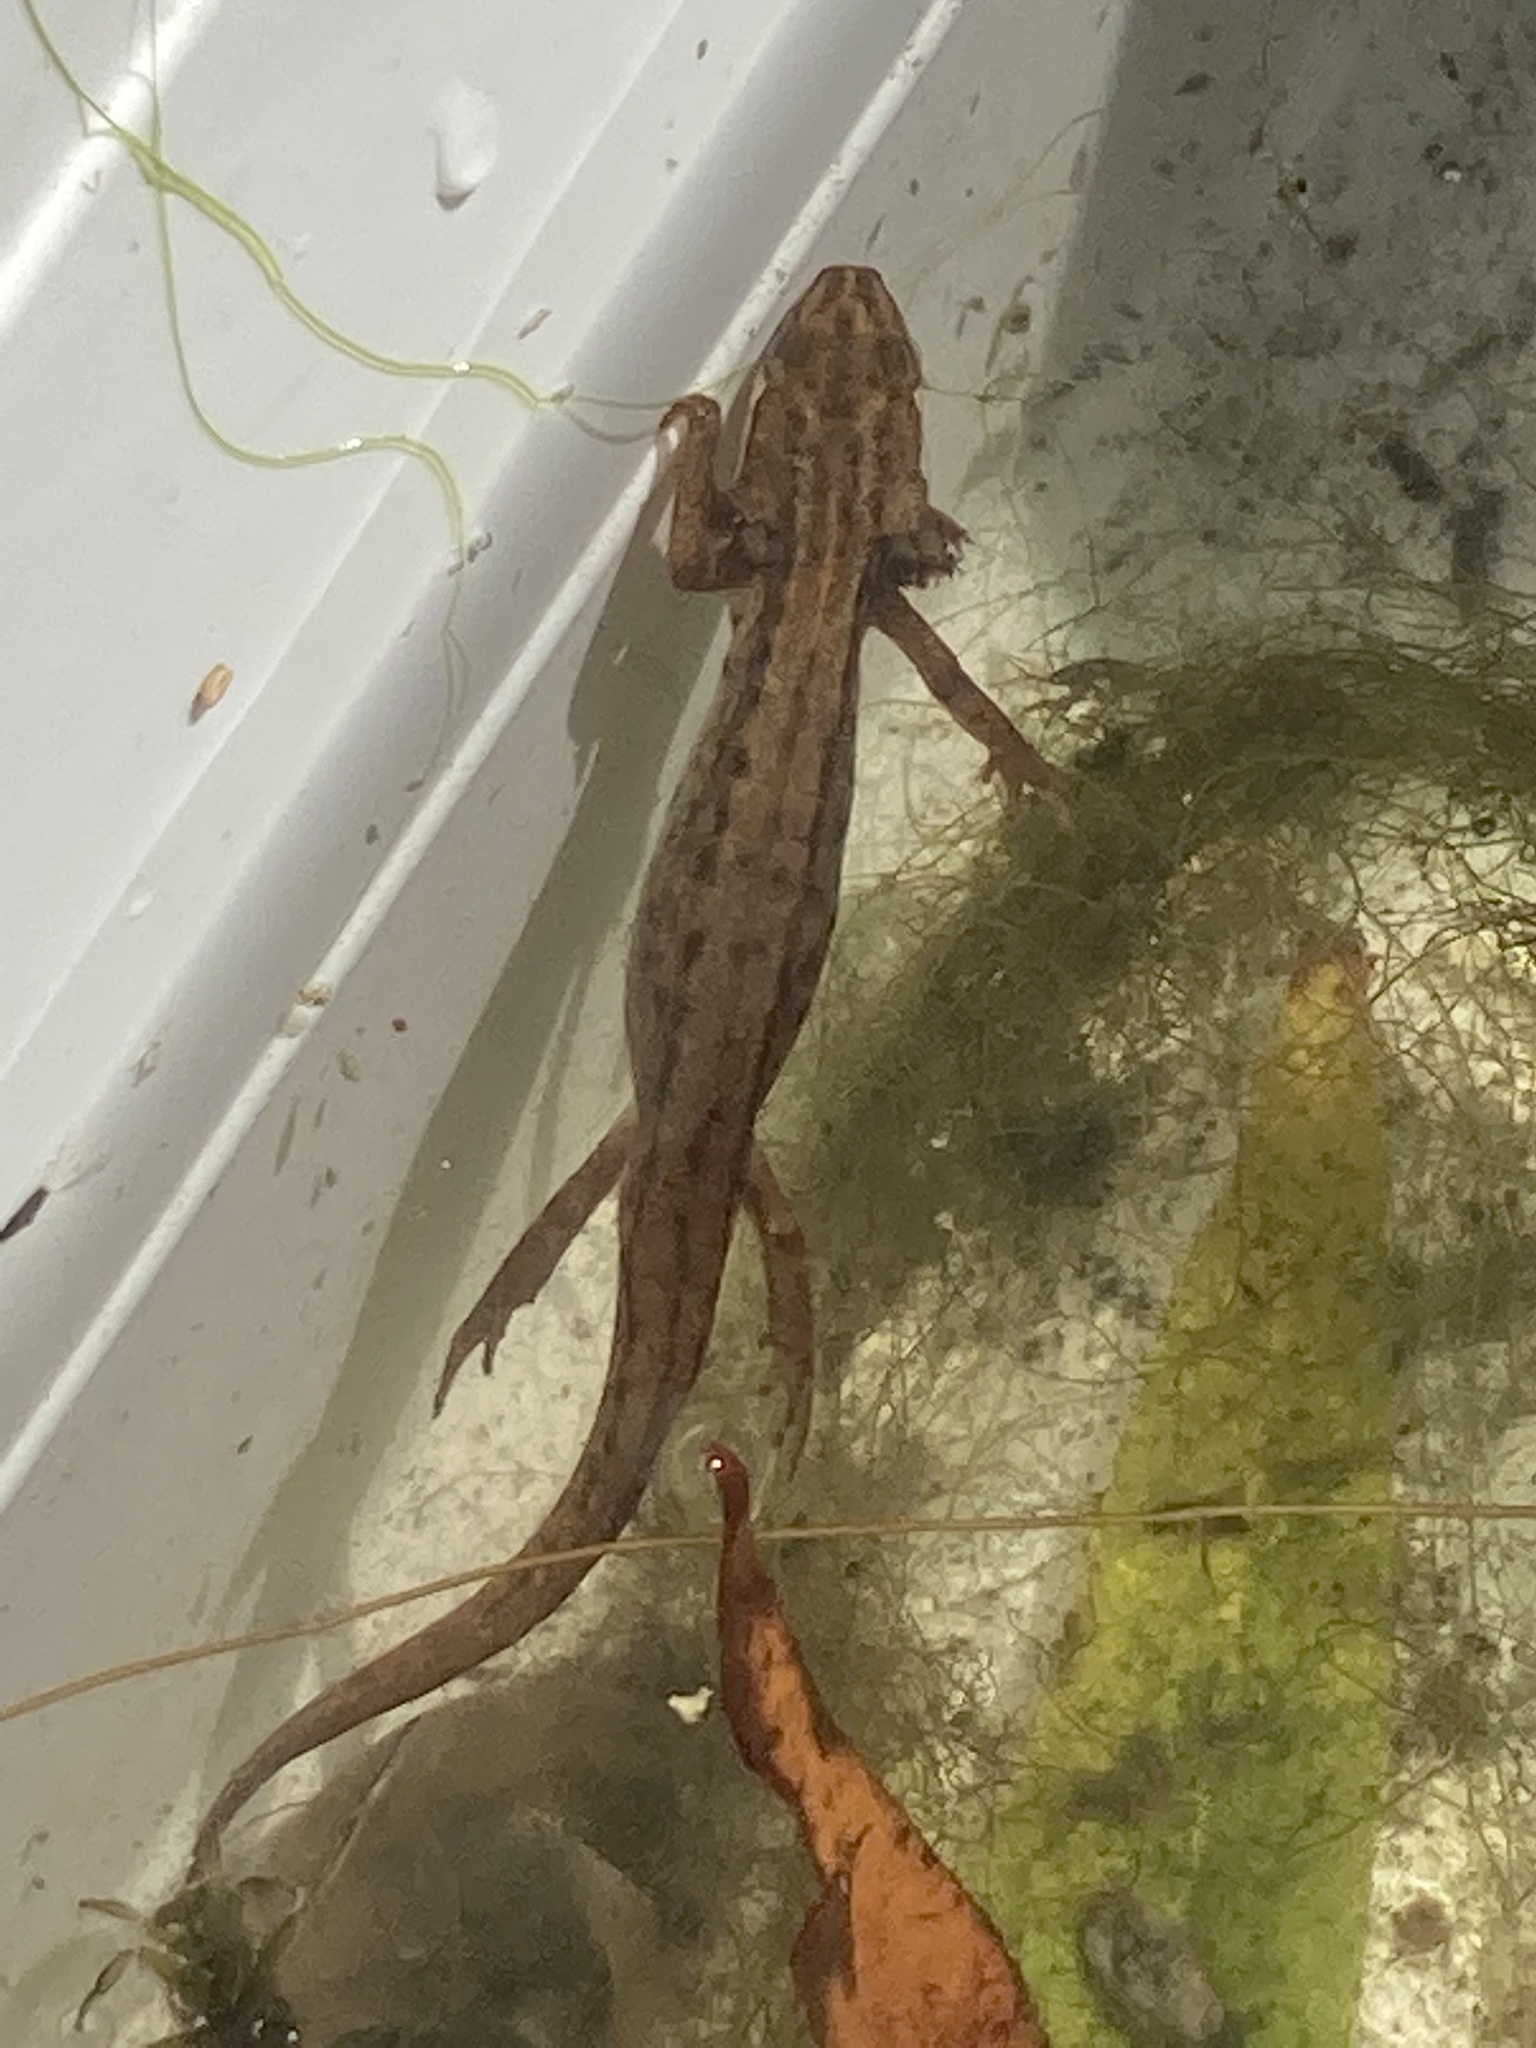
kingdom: Animalia
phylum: Chordata
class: Amphibia
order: Caudata
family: Salamandridae
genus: Lissotriton
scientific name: Lissotriton vulgaris
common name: Smooth newt
